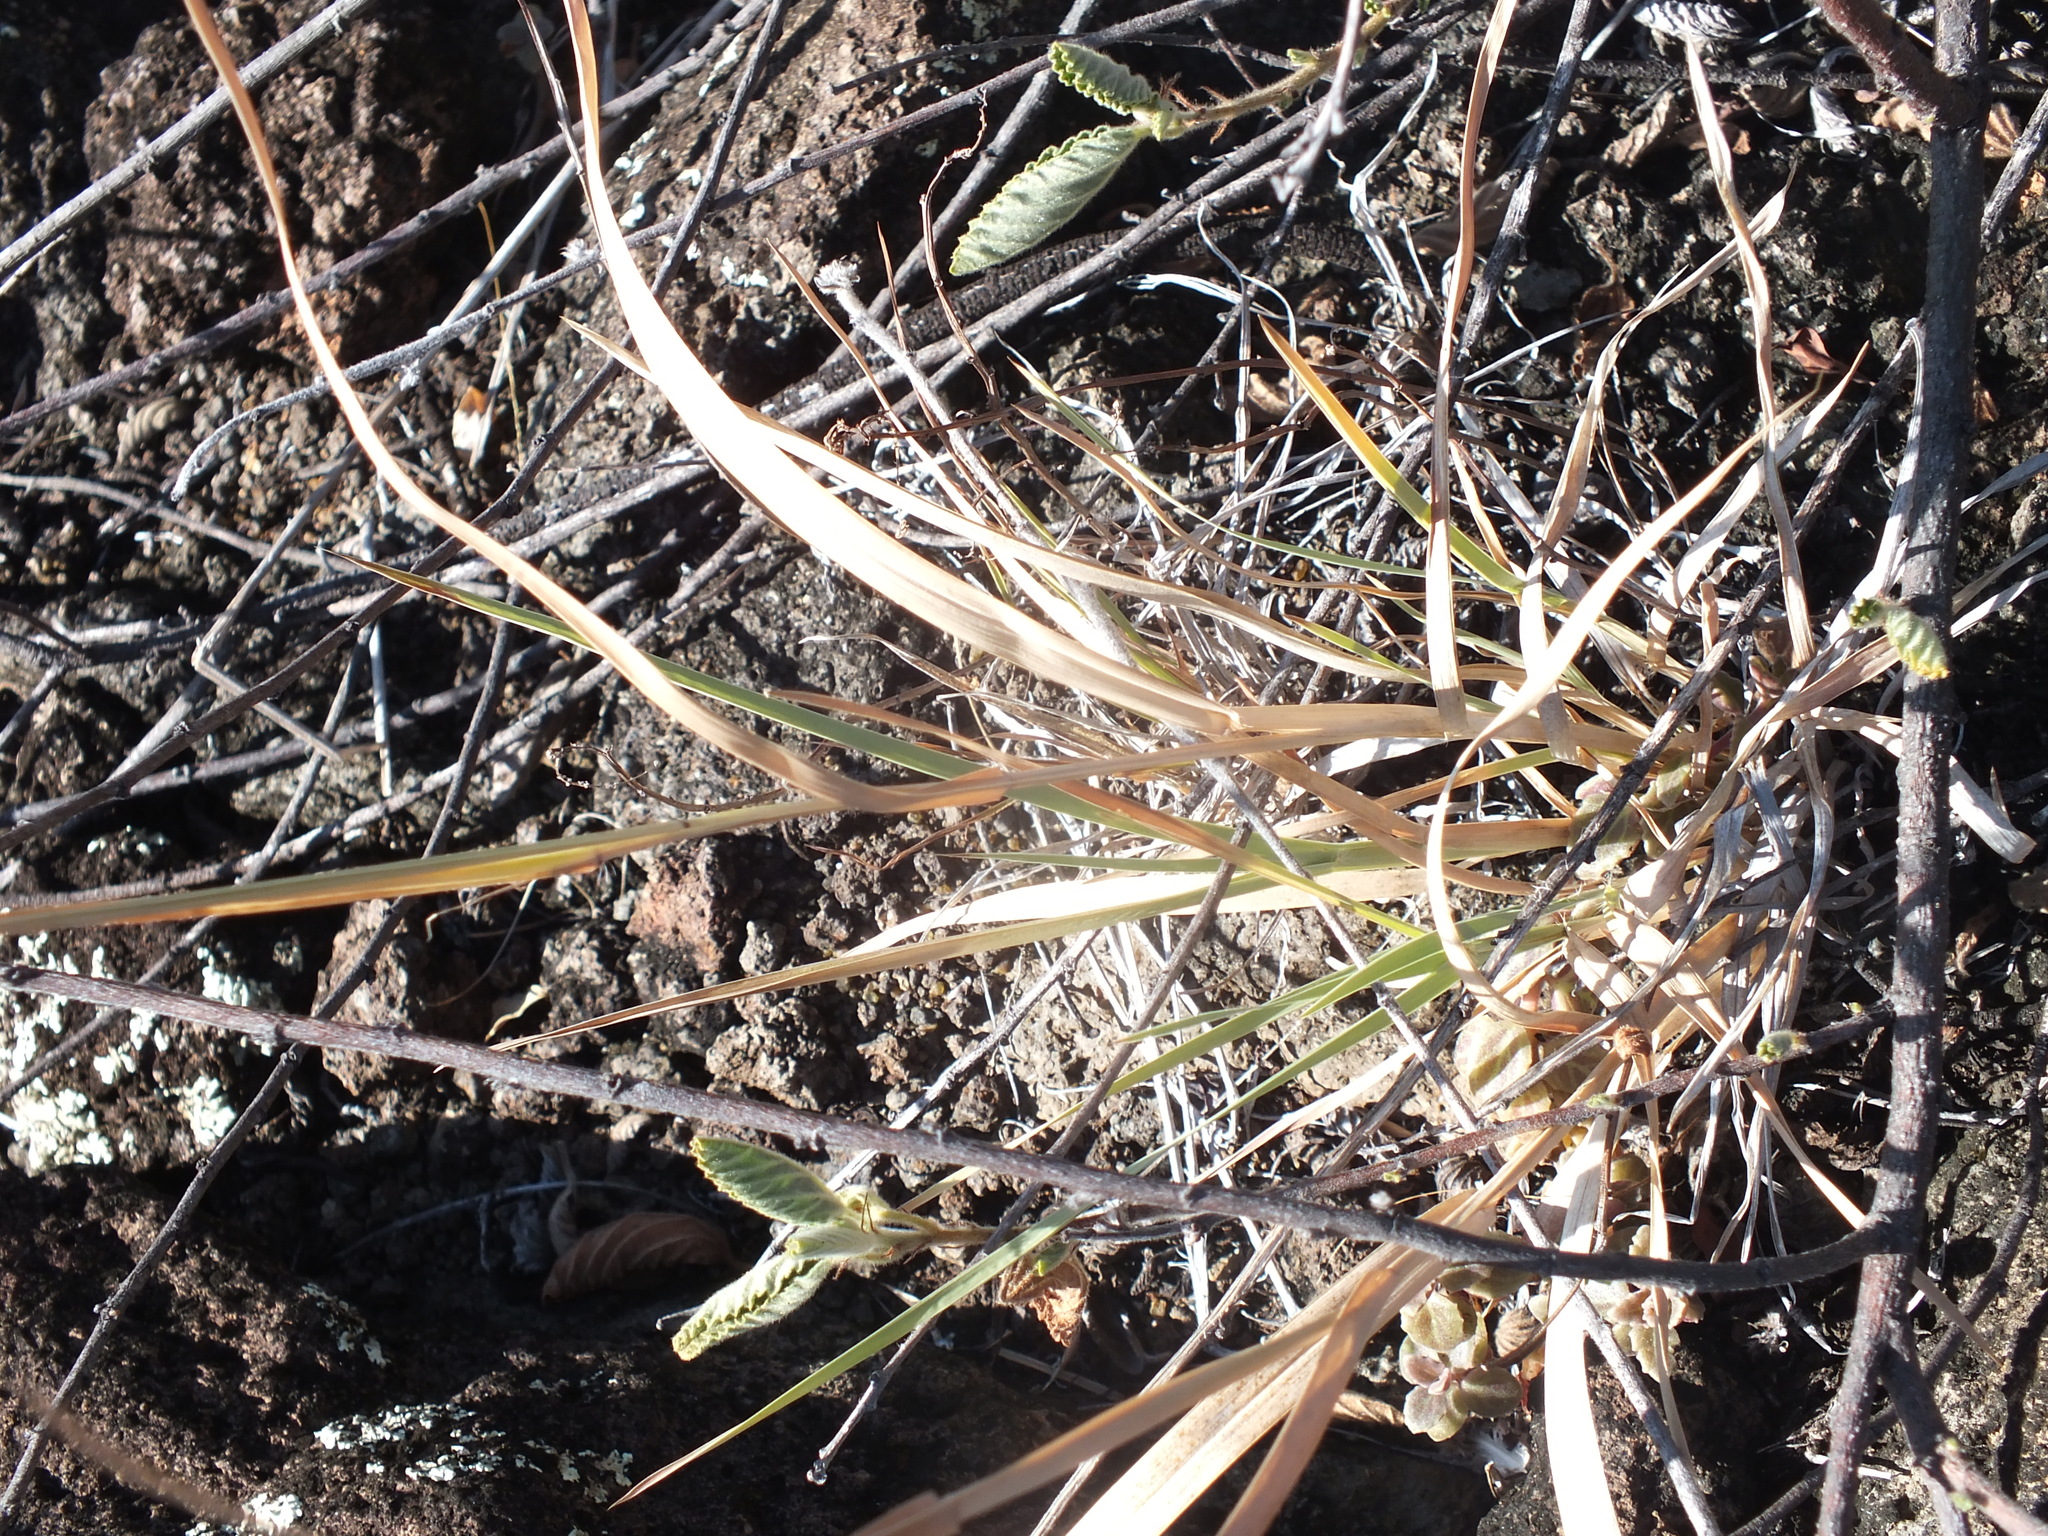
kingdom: Plantae
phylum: Tracheophyta
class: Liliopsida
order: Poales
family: Poaceae
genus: Heteropogon
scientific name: Heteropogon contortus
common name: Tanglehead
